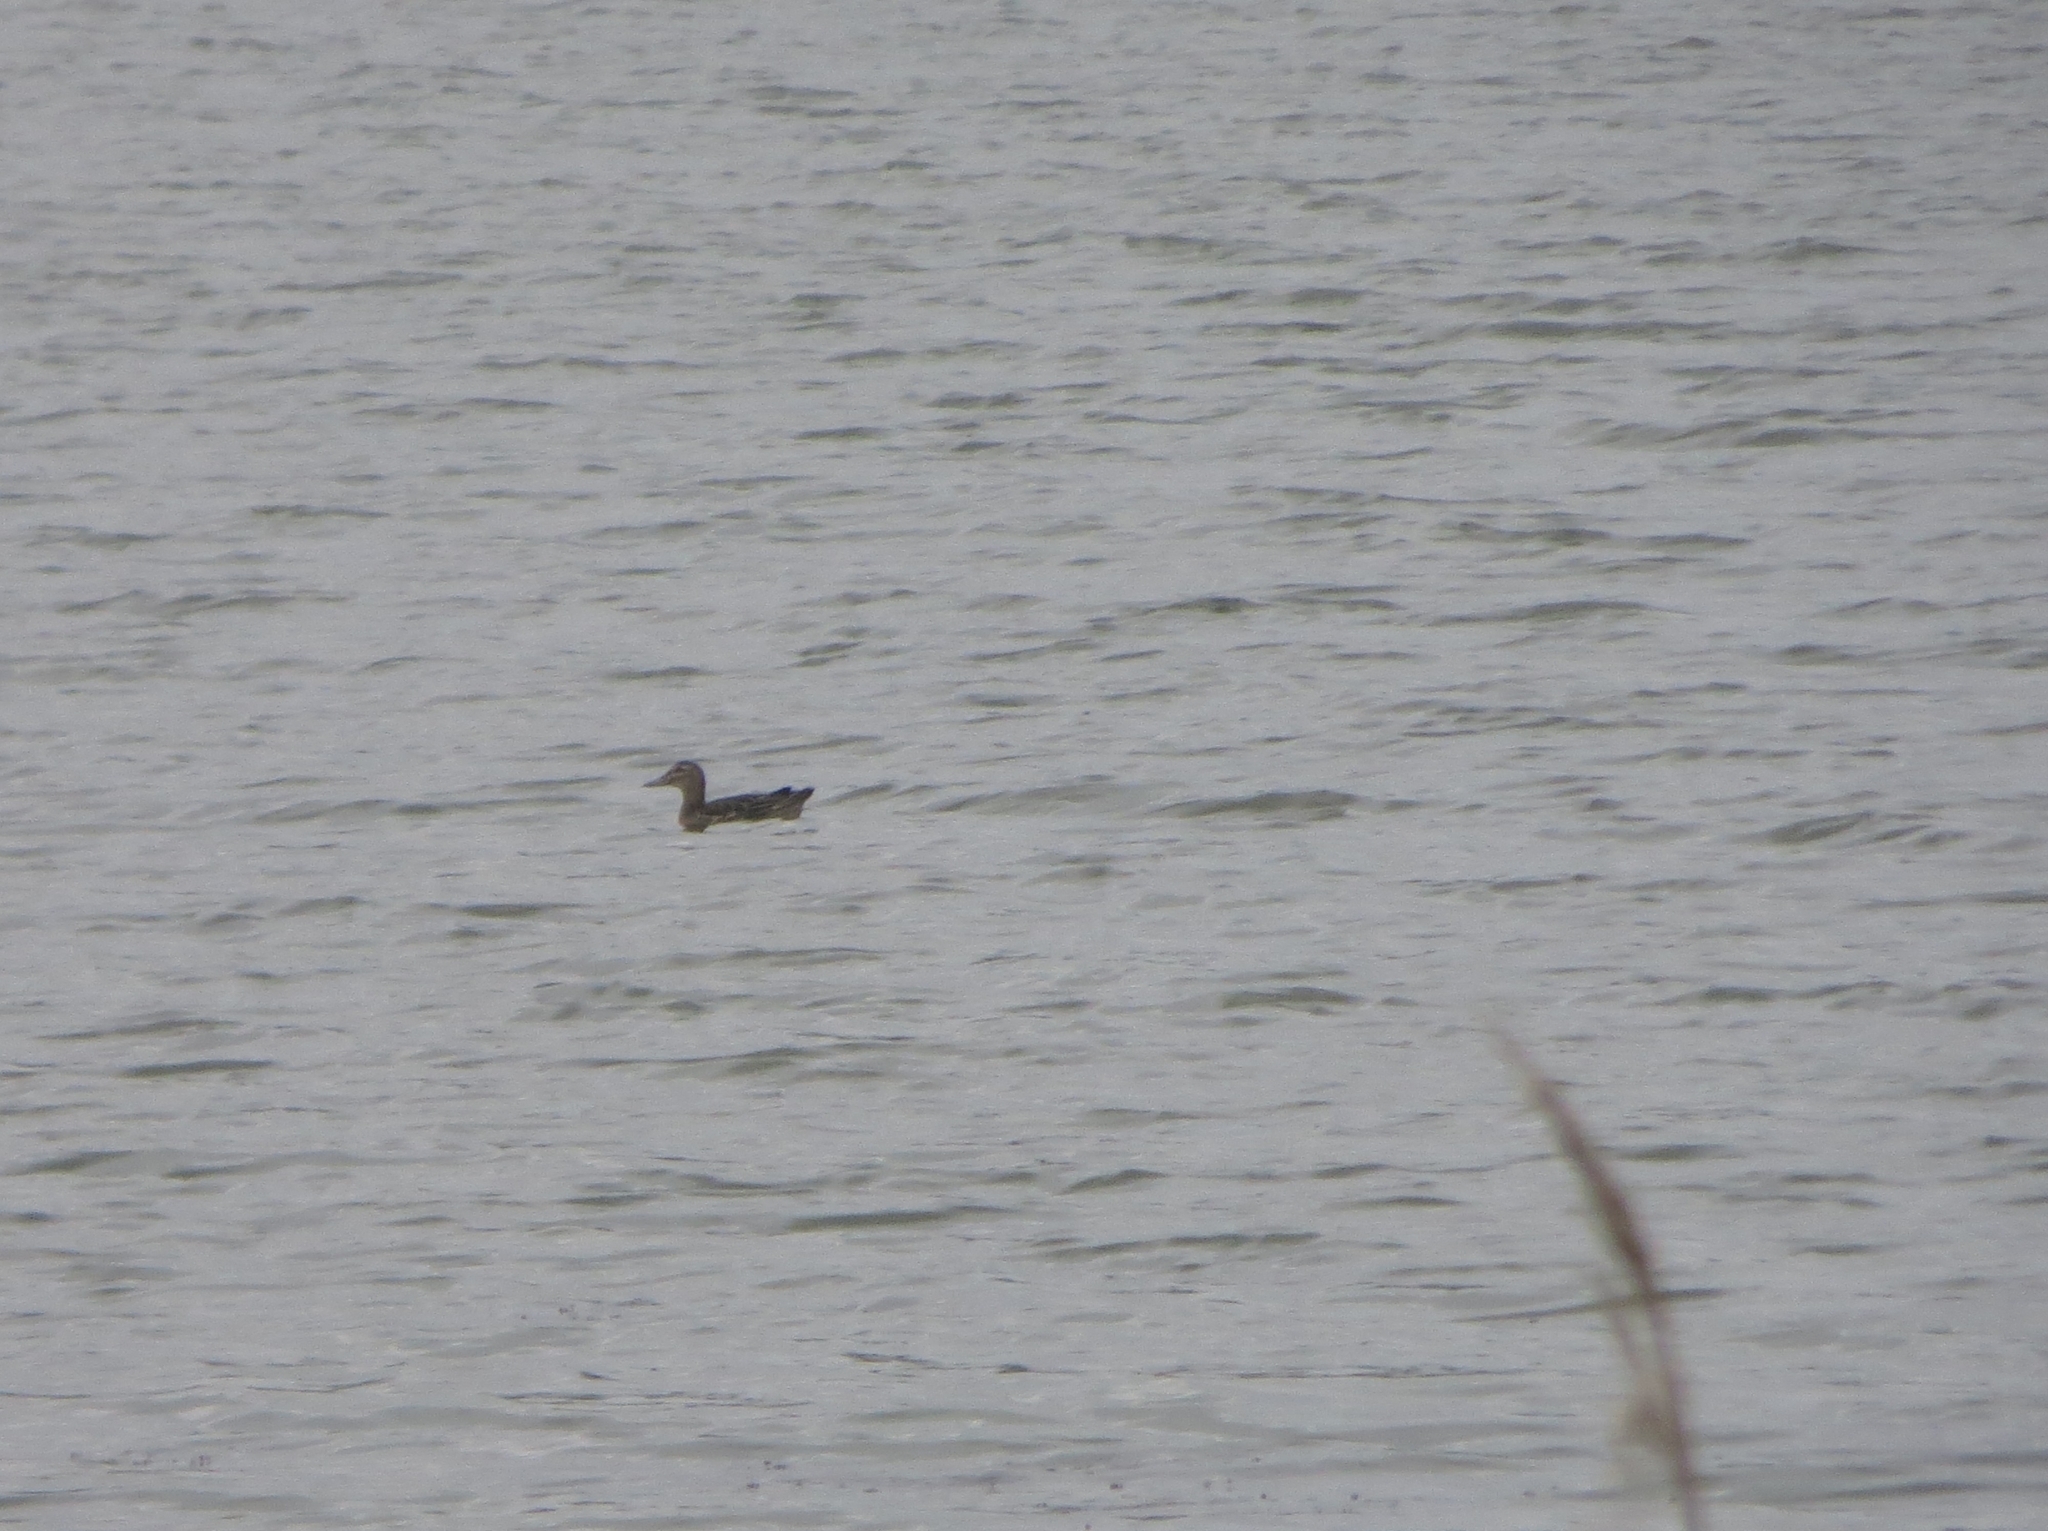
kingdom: Animalia
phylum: Chordata
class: Aves
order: Anseriformes
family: Anatidae
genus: Spatula
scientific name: Spatula querquedula
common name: Garganey
